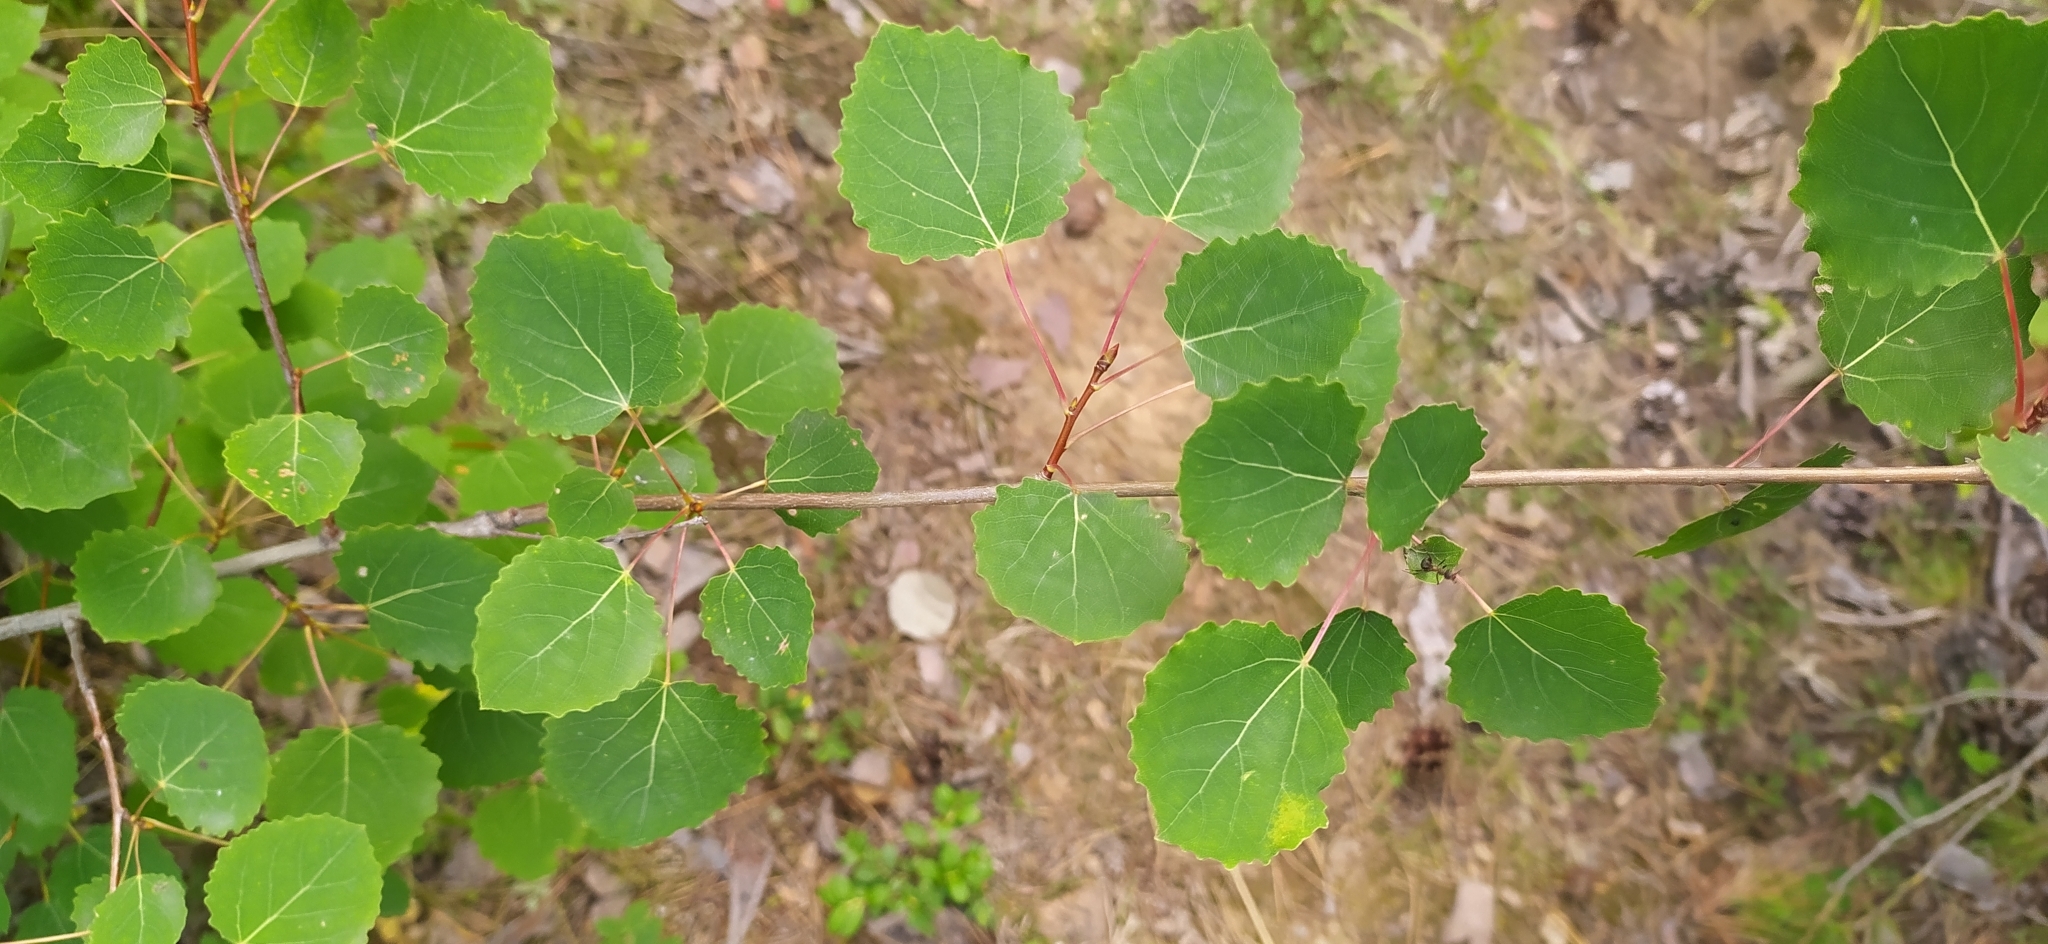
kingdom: Plantae
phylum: Tracheophyta
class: Magnoliopsida
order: Malpighiales
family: Salicaceae
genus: Populus
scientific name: Populus tremula
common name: European aspen
